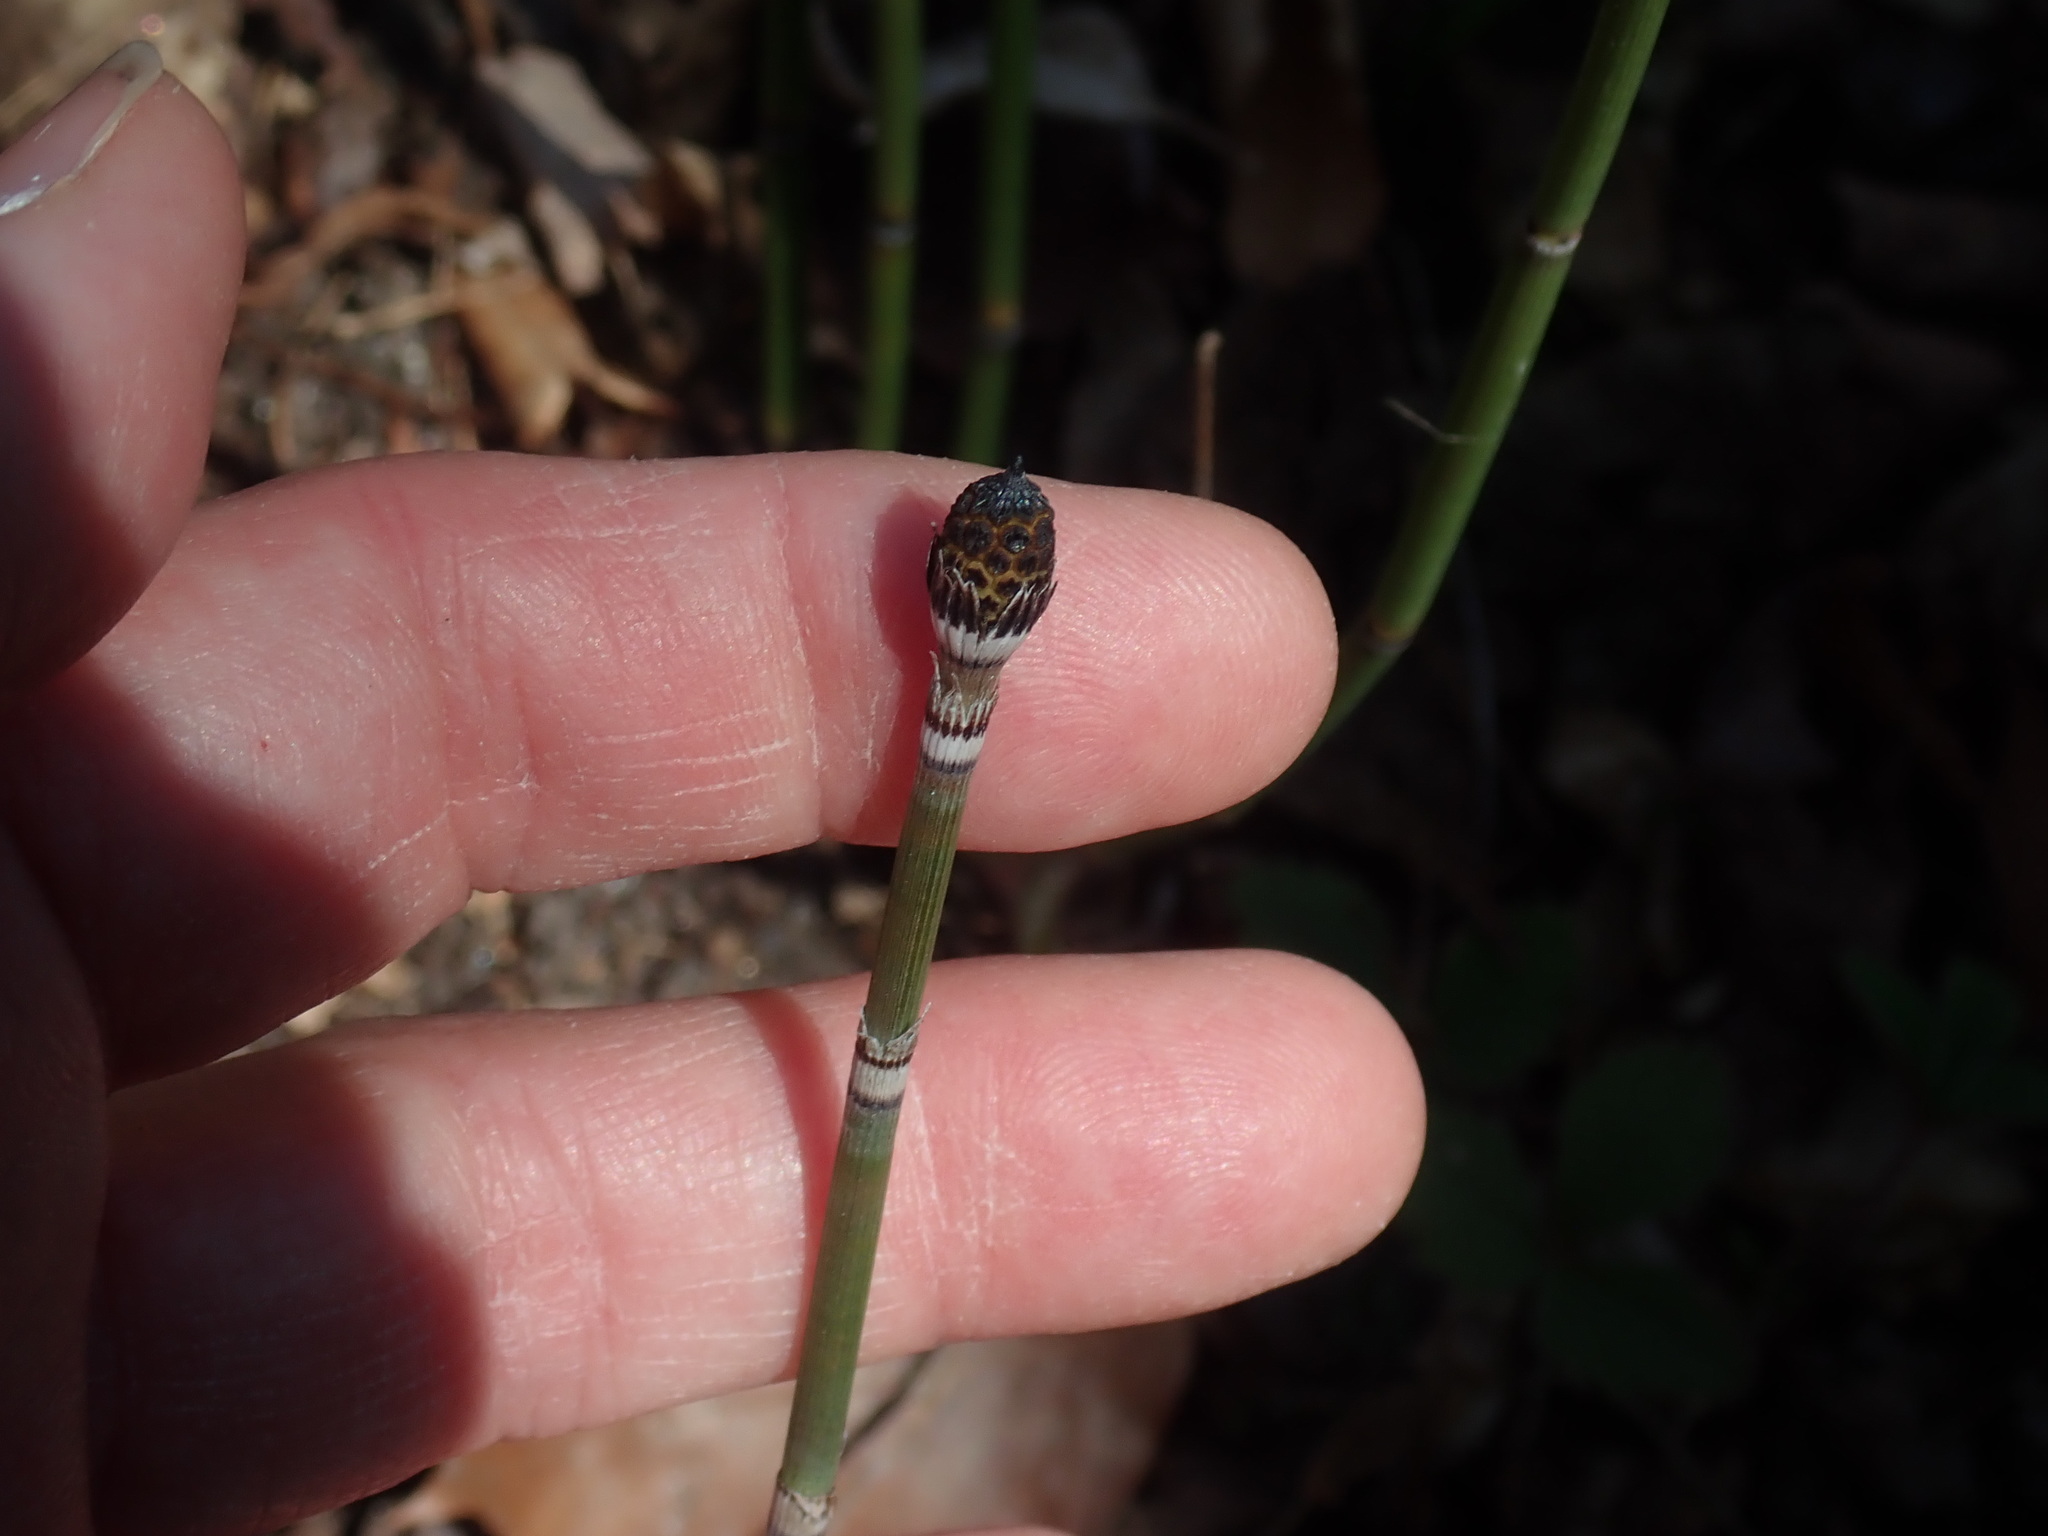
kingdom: Plantae
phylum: Tracheophyta
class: Polypodiopsida
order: Equisetales
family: Equisetaceae
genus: Equisetum
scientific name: Equisetum hyemale
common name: Rough horsetail
